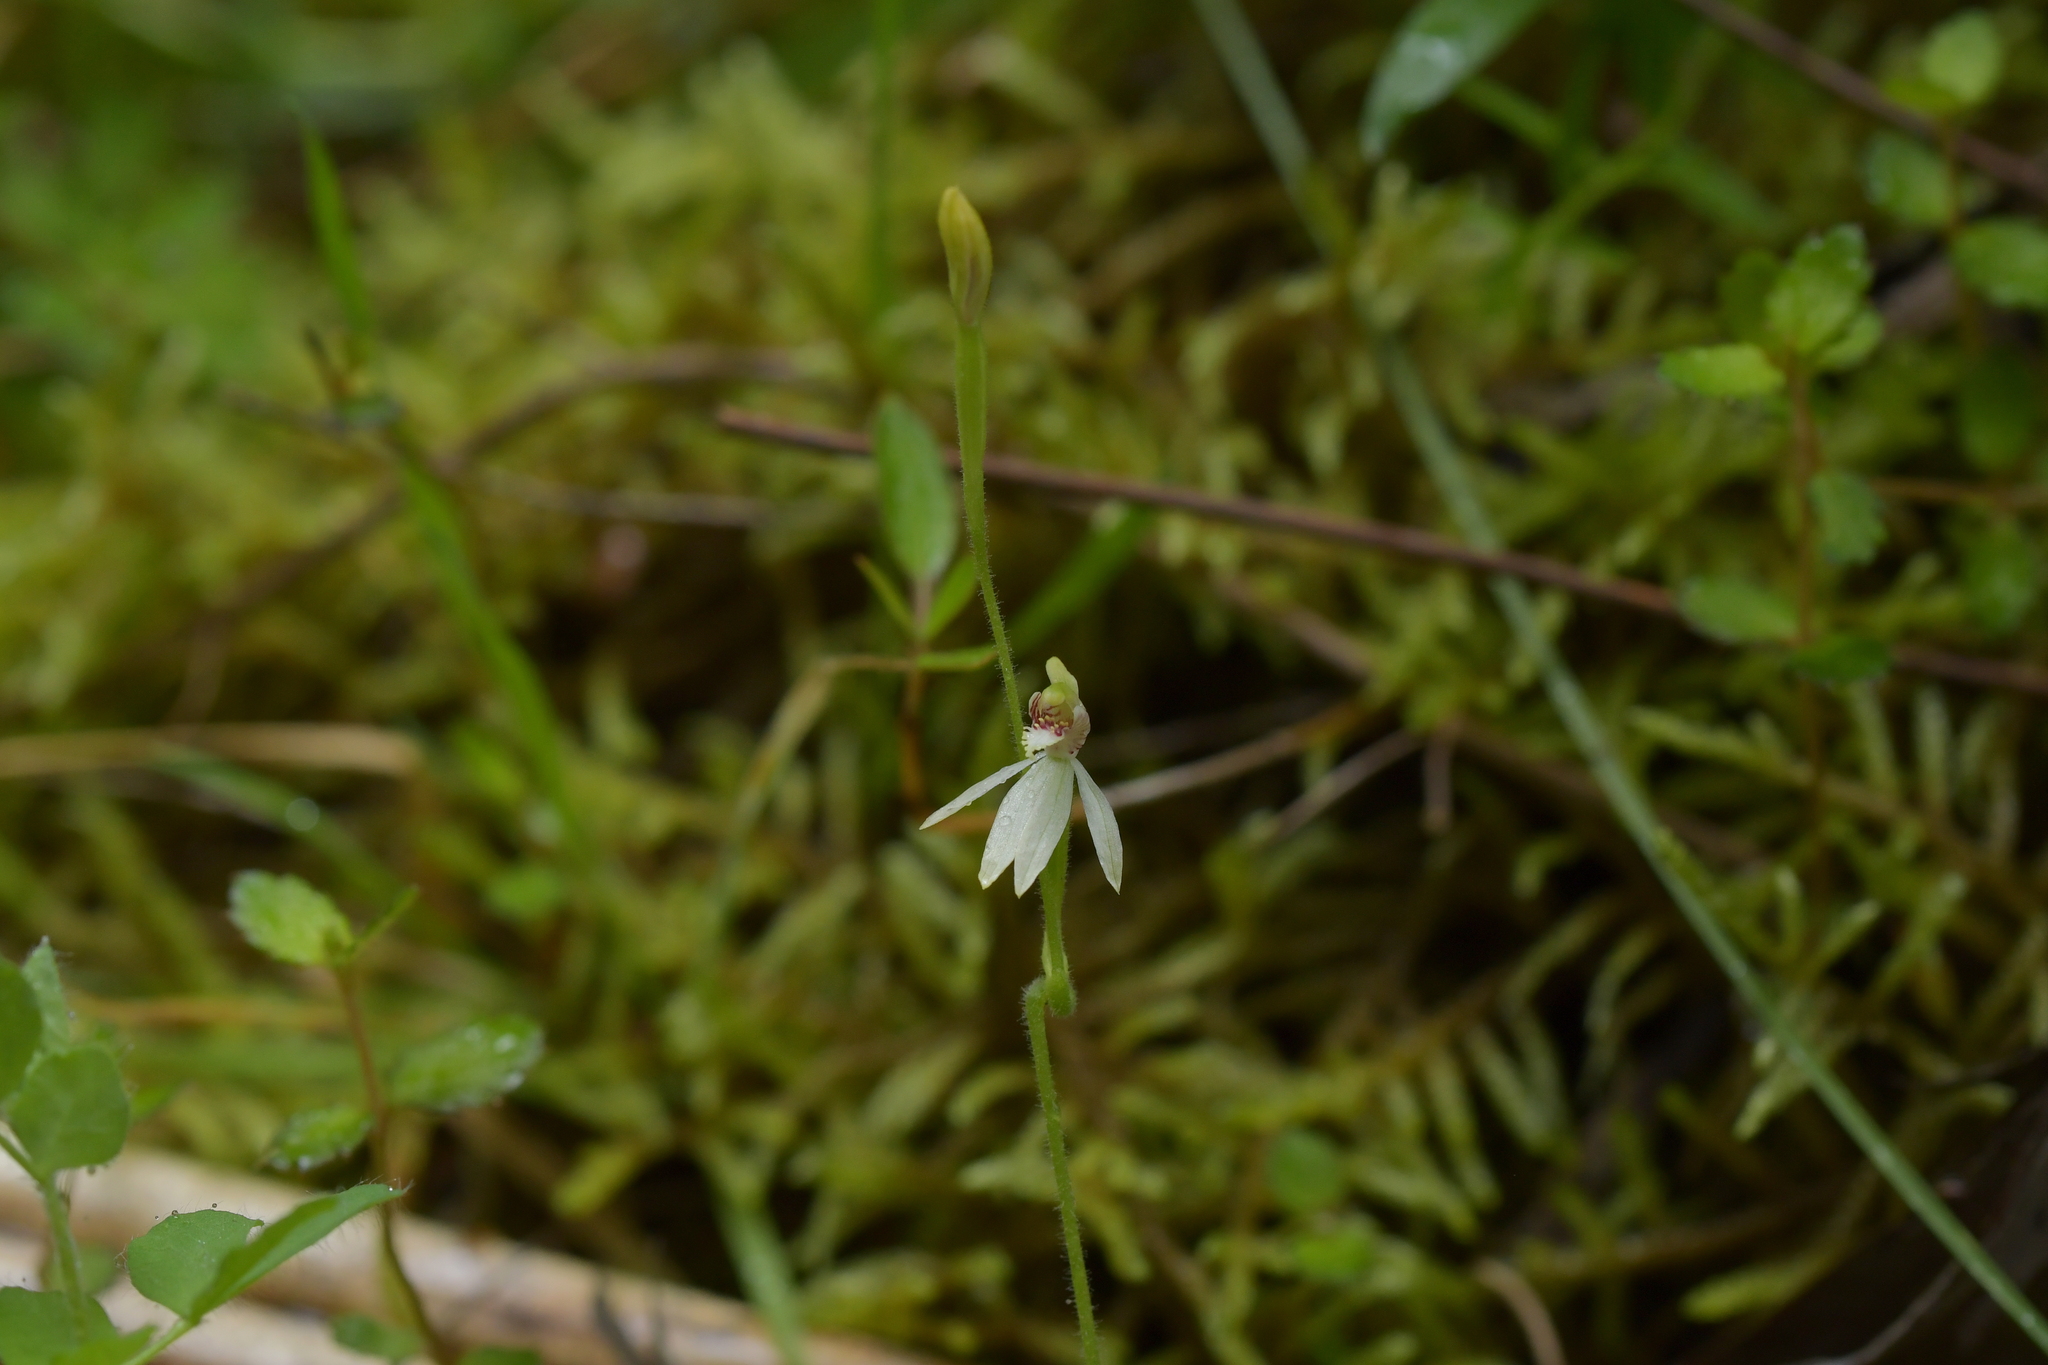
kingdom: Plantae
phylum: Tracheophyta
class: Liliopsida
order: Asparagales
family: Orchidaceae
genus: Caladenia
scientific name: Caladenia chlorostyla
